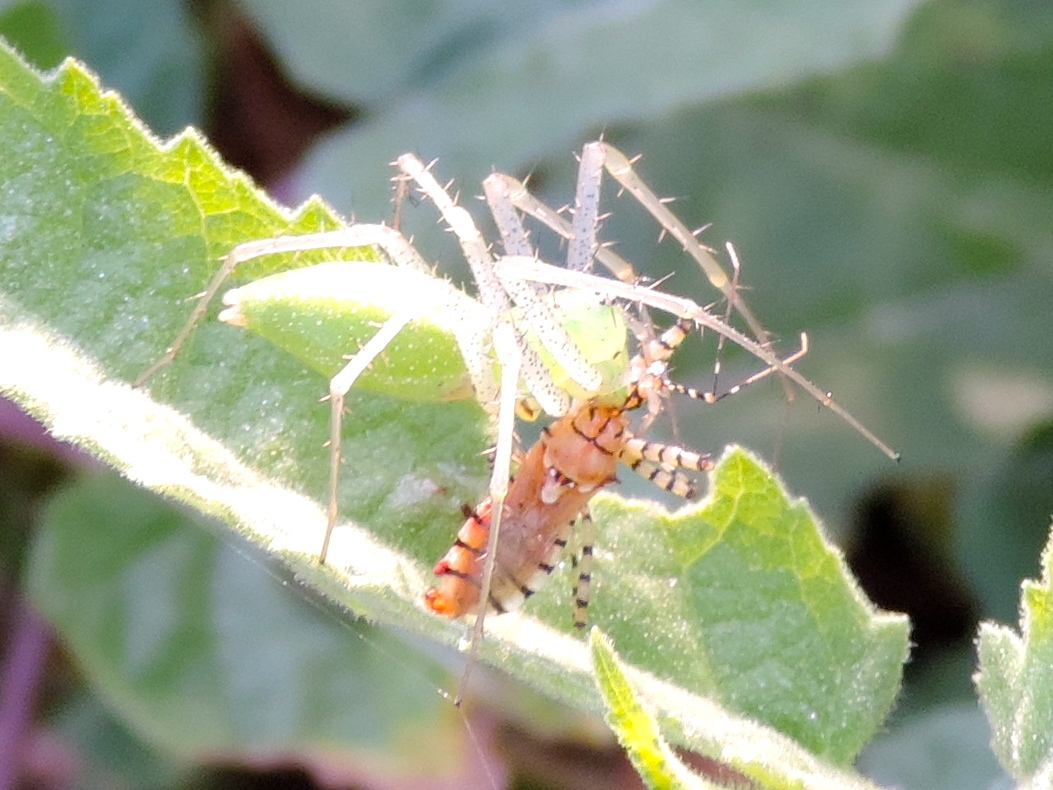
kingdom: Animalia
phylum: Arthropoda
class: Insecta
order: Hemiptera
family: Reduviidae
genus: Pselliopus
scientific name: Pselliopus
